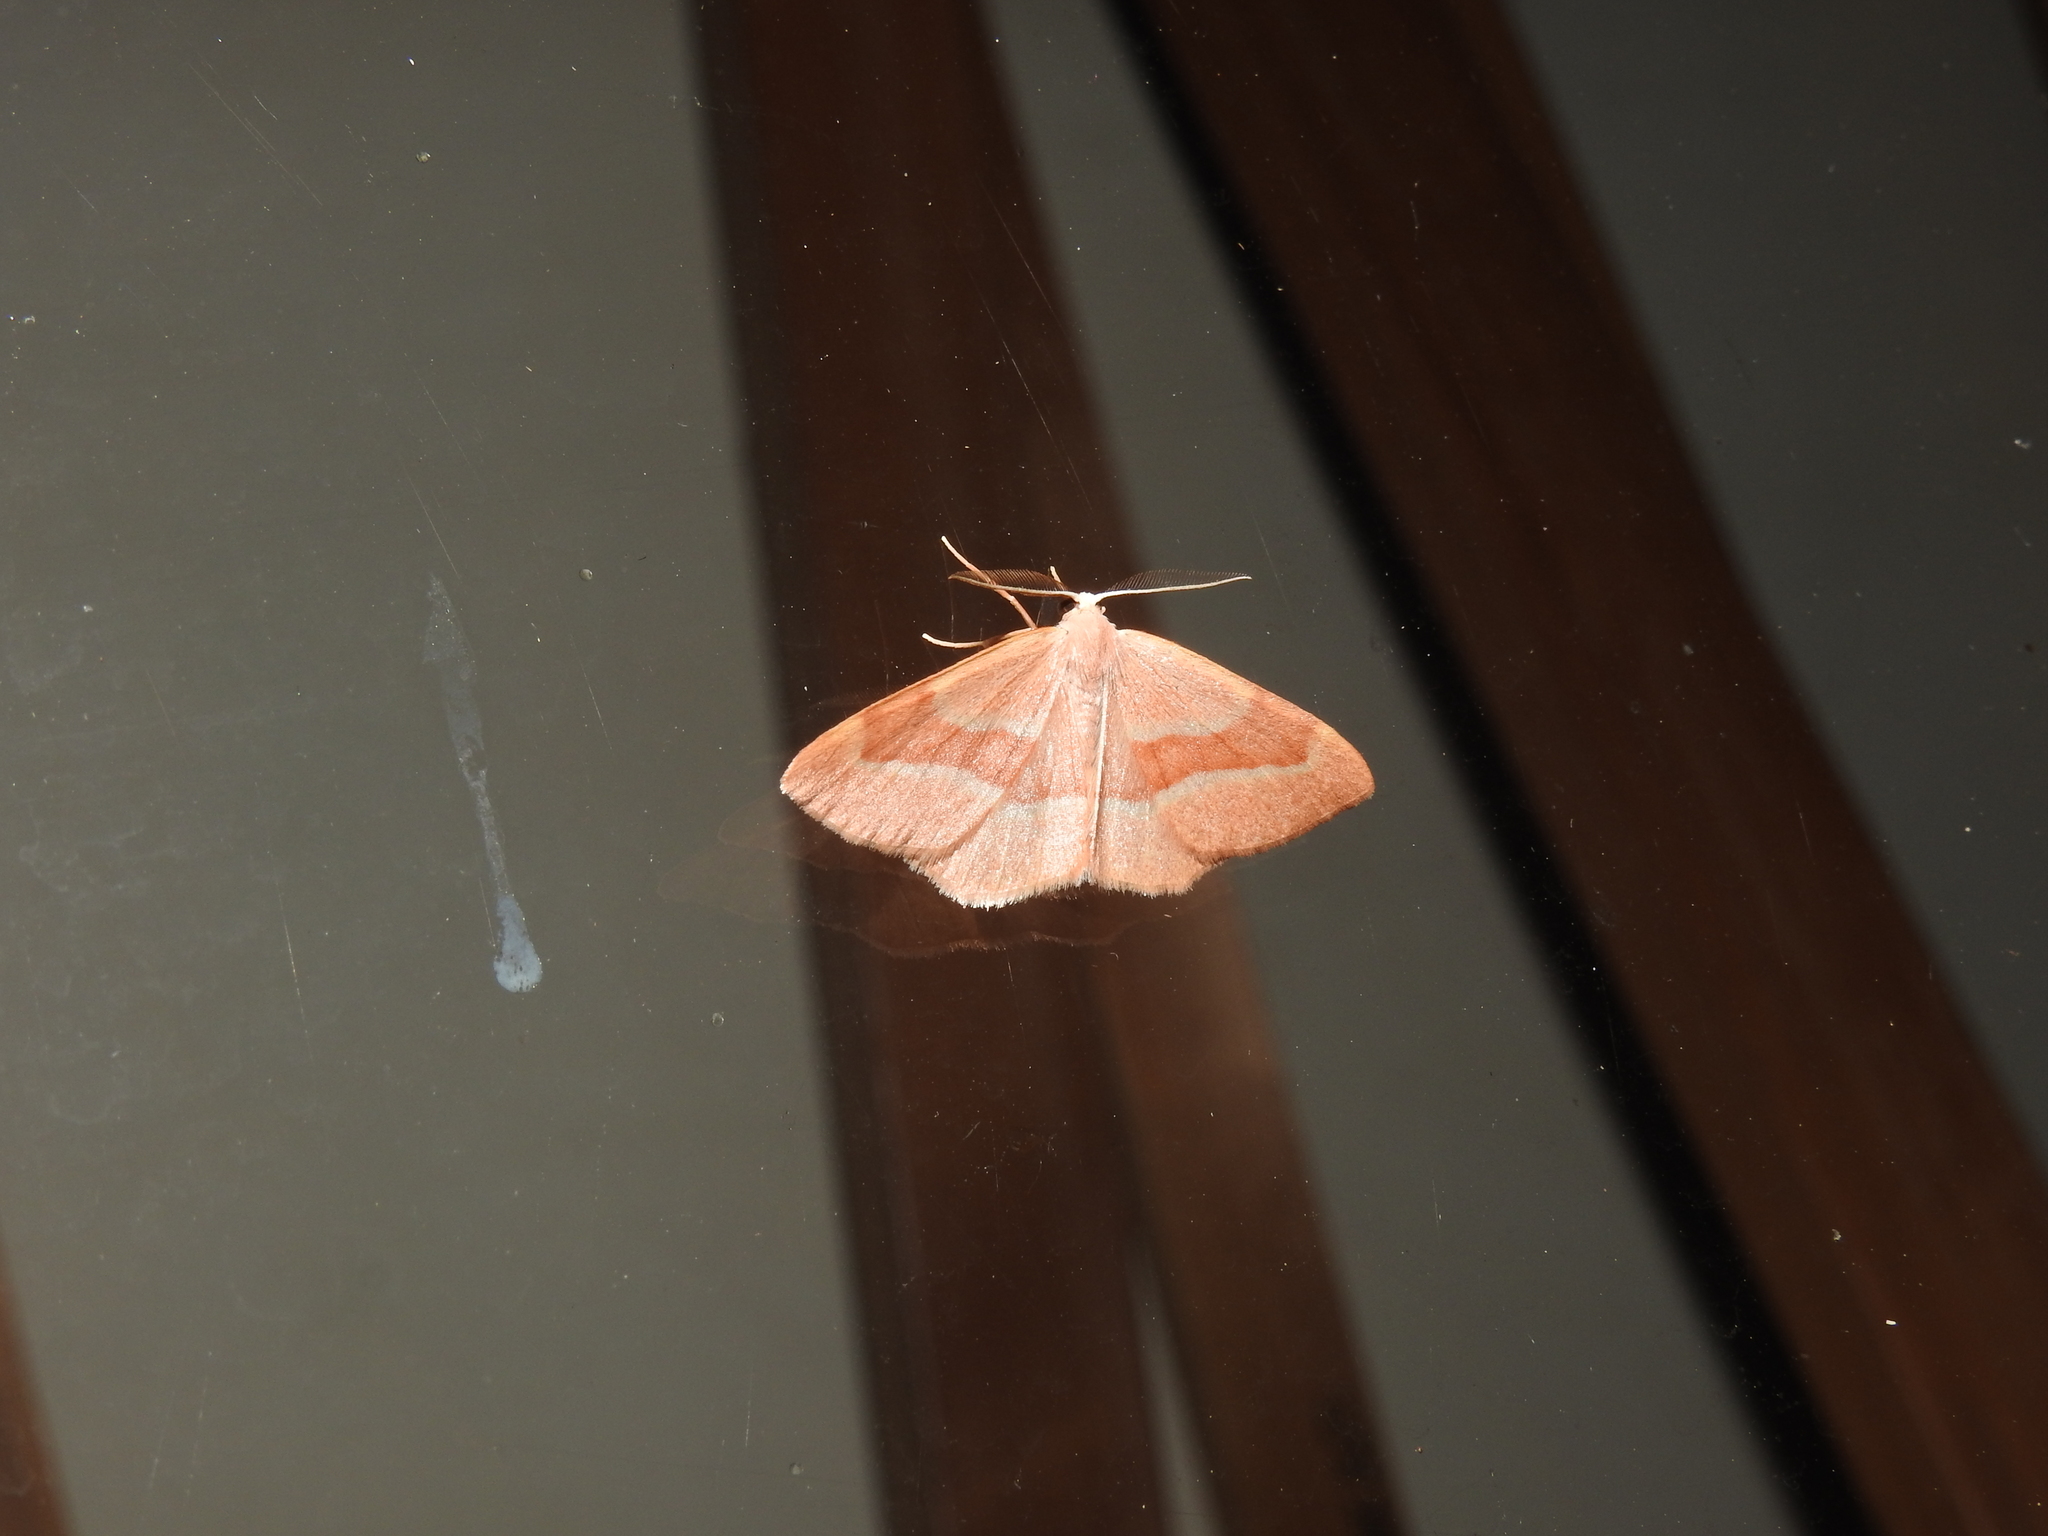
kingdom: Animalia
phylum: Arthropoda
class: Insecta
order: Lepidoptera
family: Geometridae
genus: Hylaea
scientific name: Hylaea fasciaria
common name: Barred red
